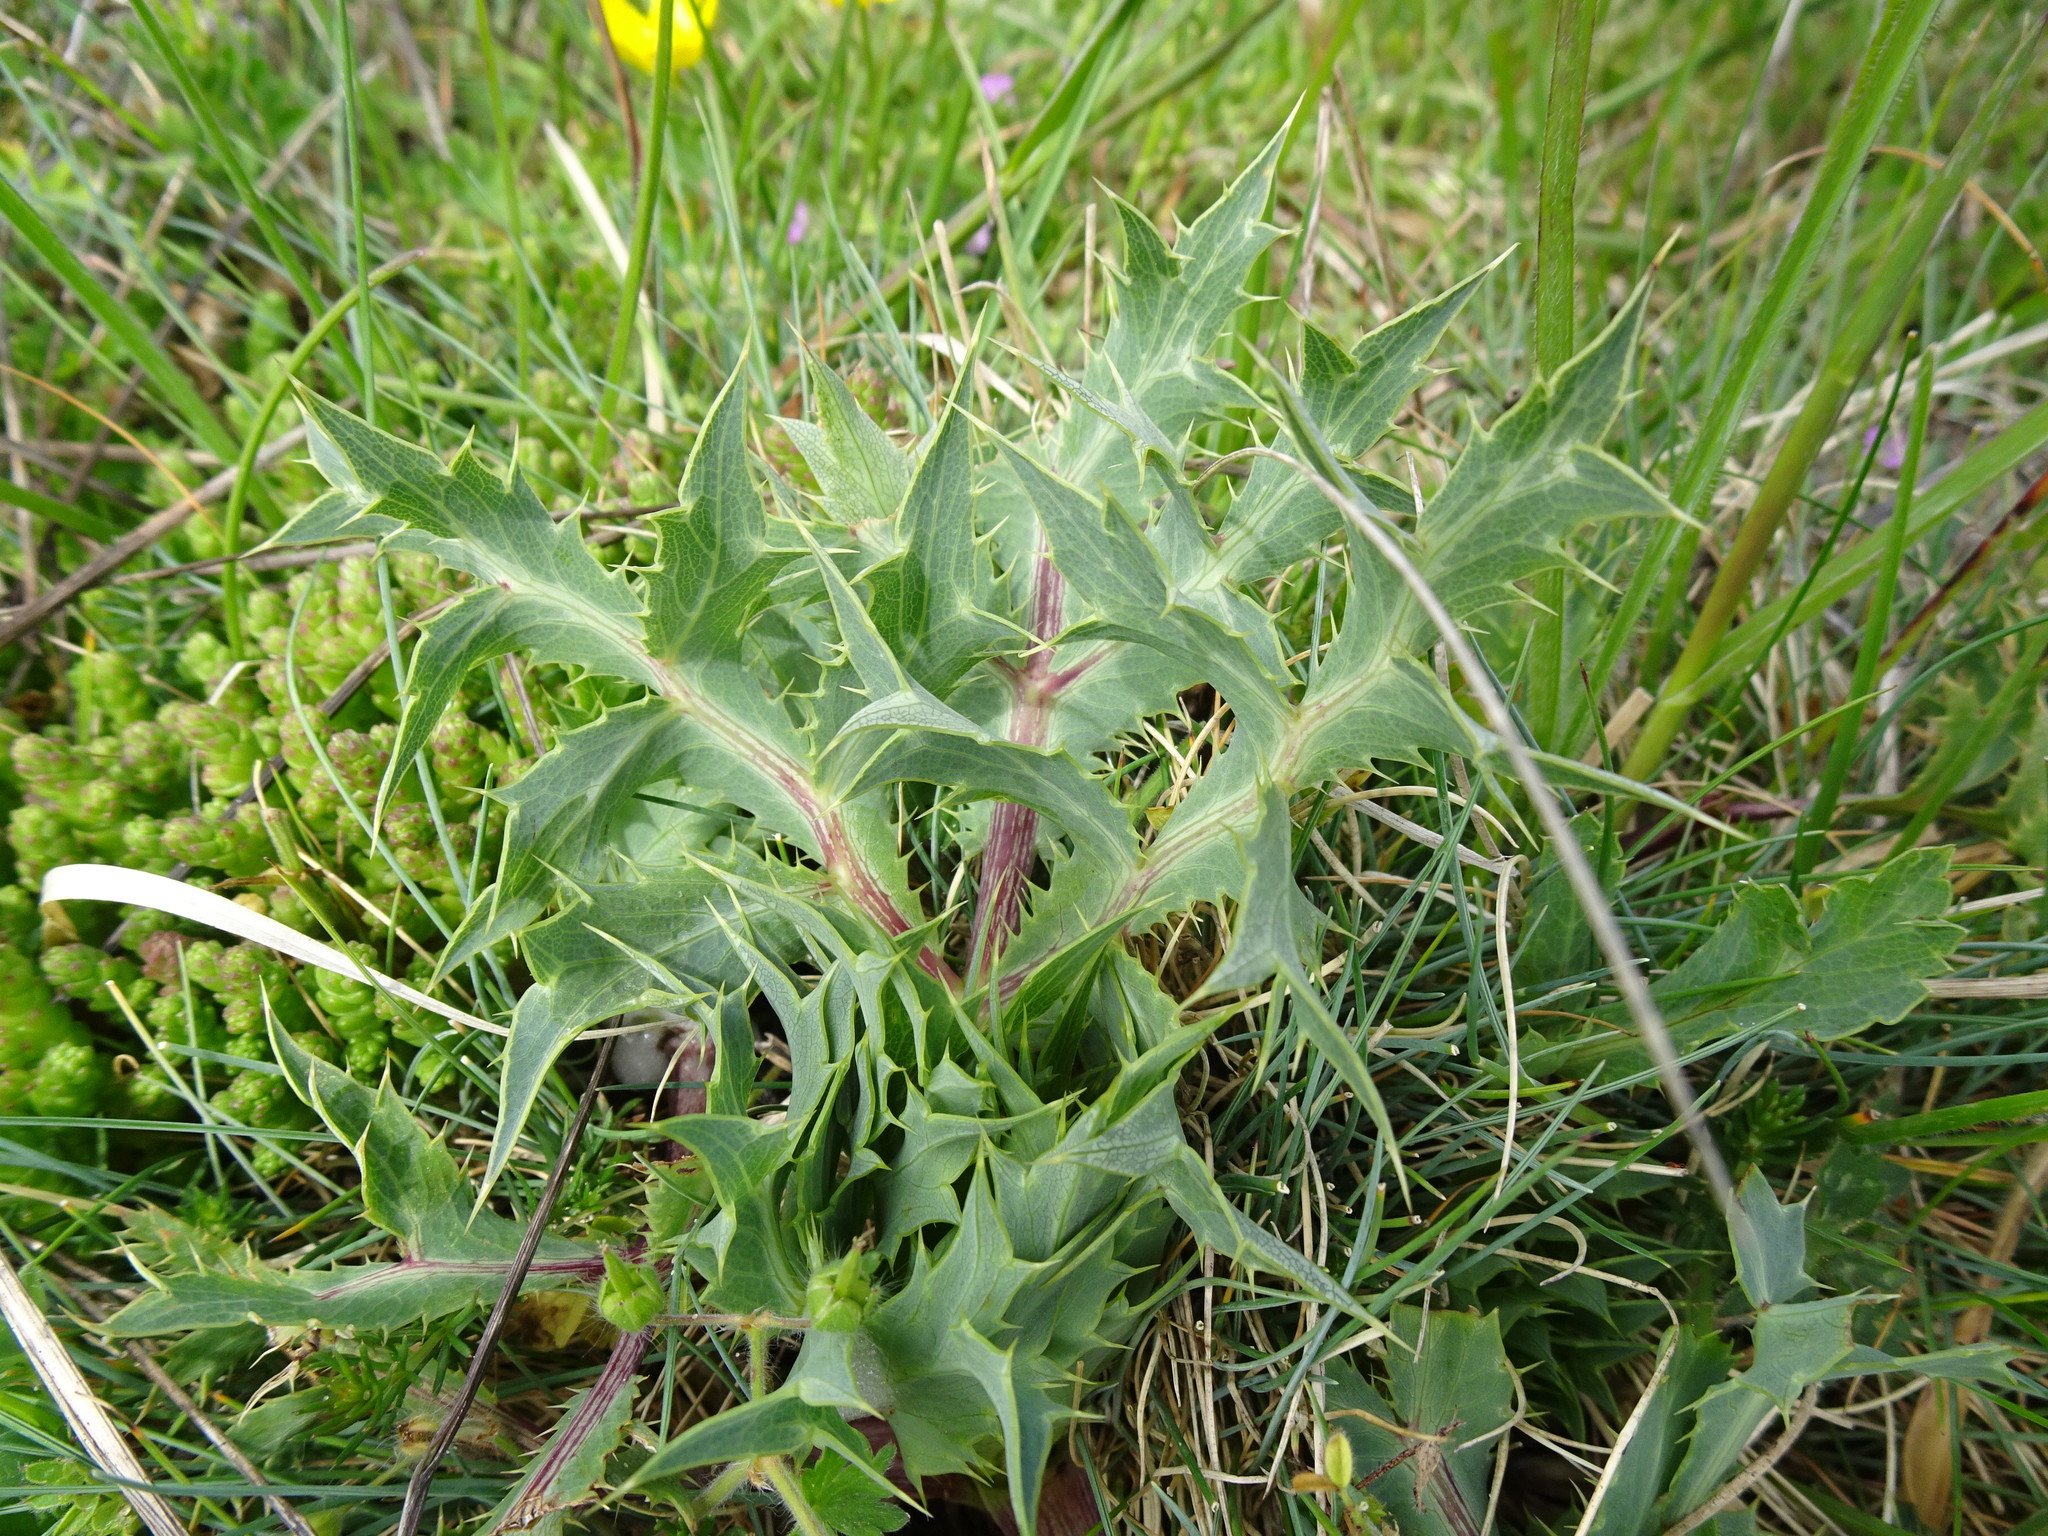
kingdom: Plantae
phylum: Tracheophyta
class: Magnoliopsida
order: Apiales
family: Apiaceae
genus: Eryngium
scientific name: Eryngium campestre
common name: Field eryngo
